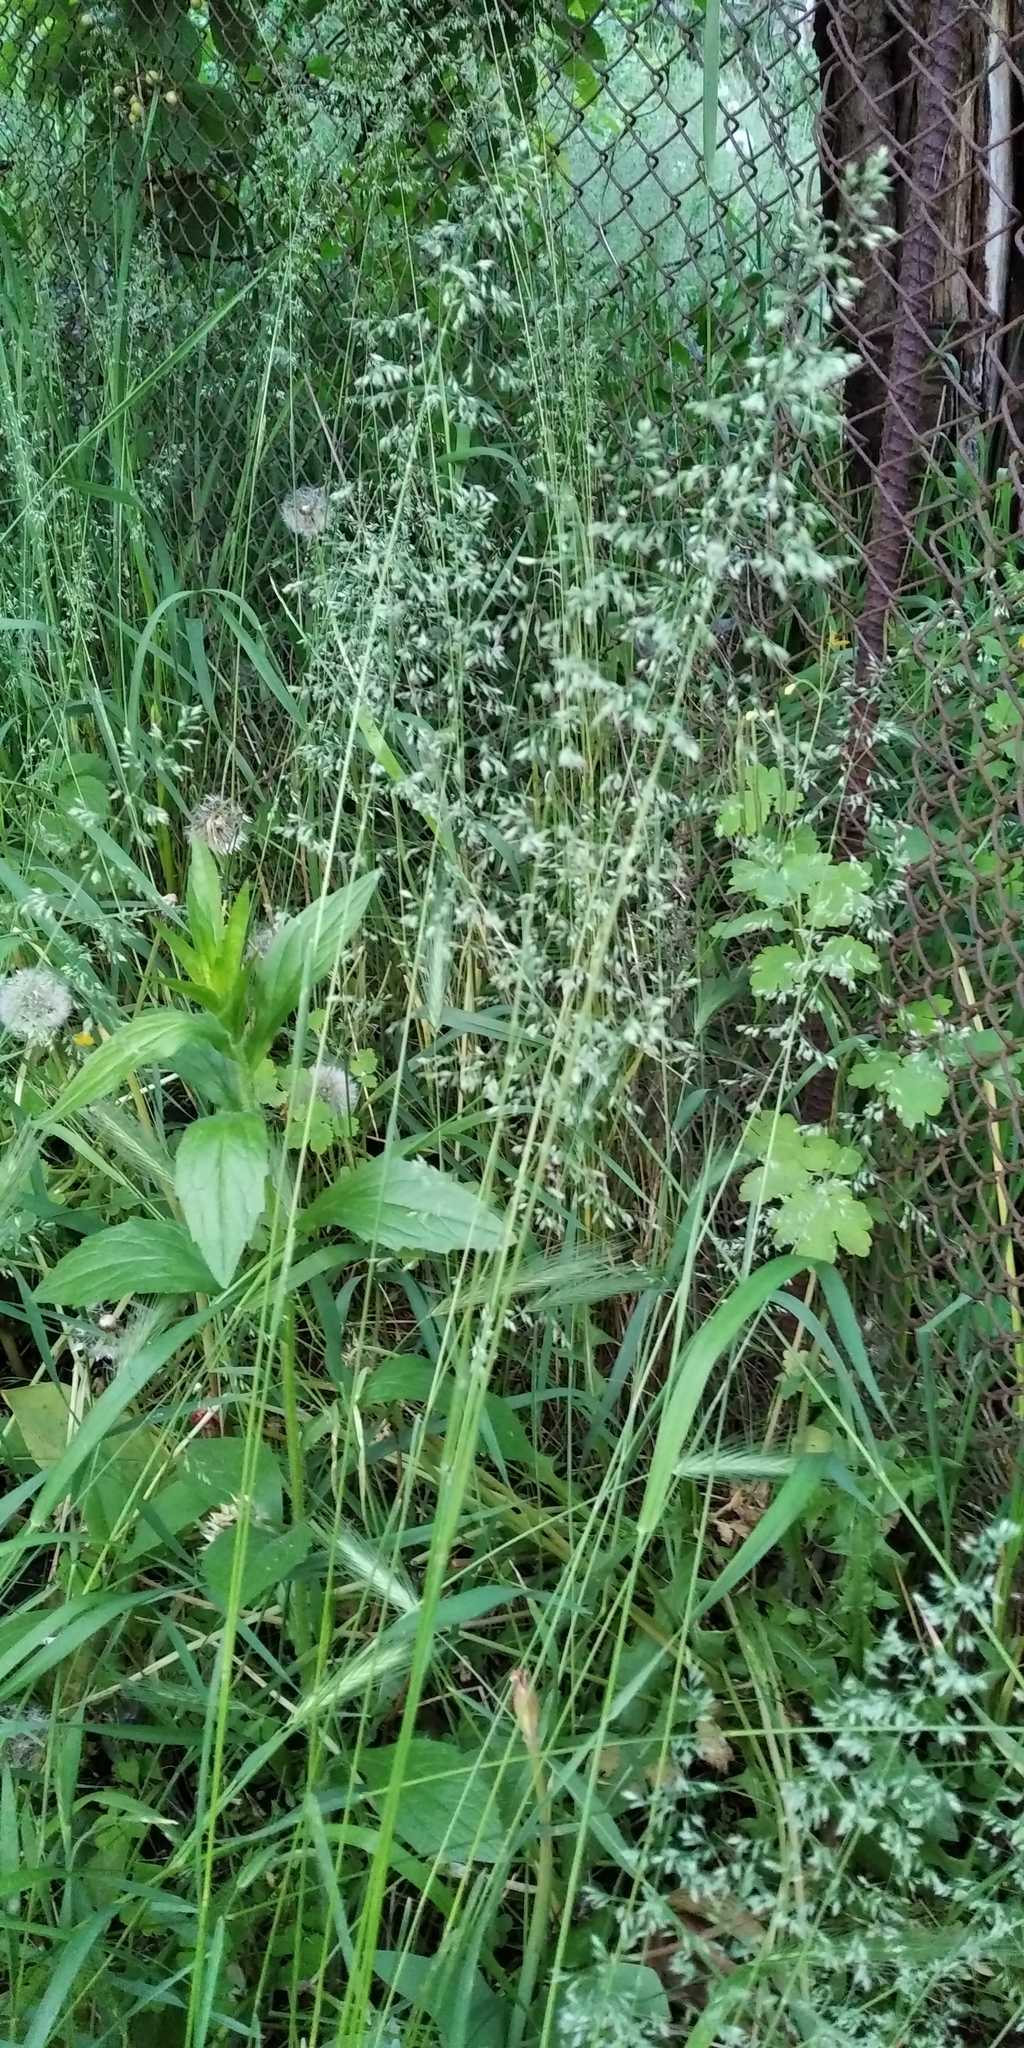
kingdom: Plantae
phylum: Tracheophyta
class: Liliopsida
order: Poales
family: Poaceae
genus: Poa
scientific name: Poa pratensis
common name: Kentucky bluegrass
